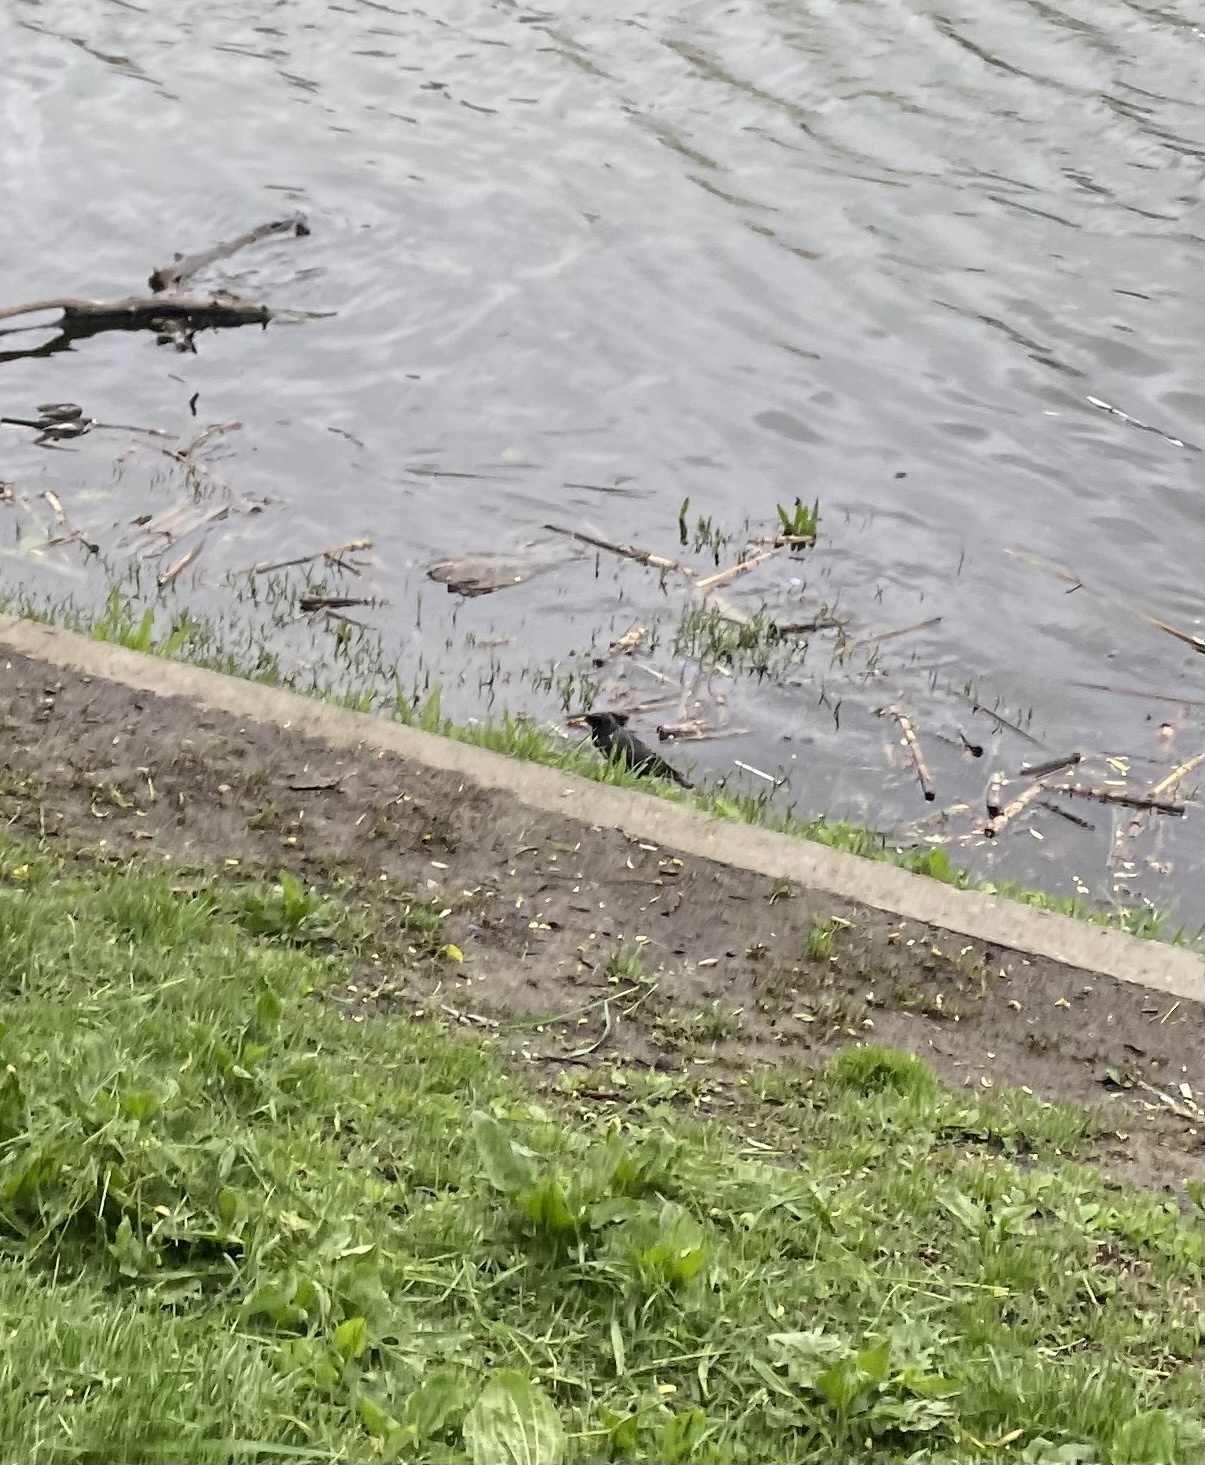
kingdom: Animalia
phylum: Chordata
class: Aves
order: Passeriformes
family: Sturnidae
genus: Sturnus
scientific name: Sturnus vulgaris
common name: Common starling
